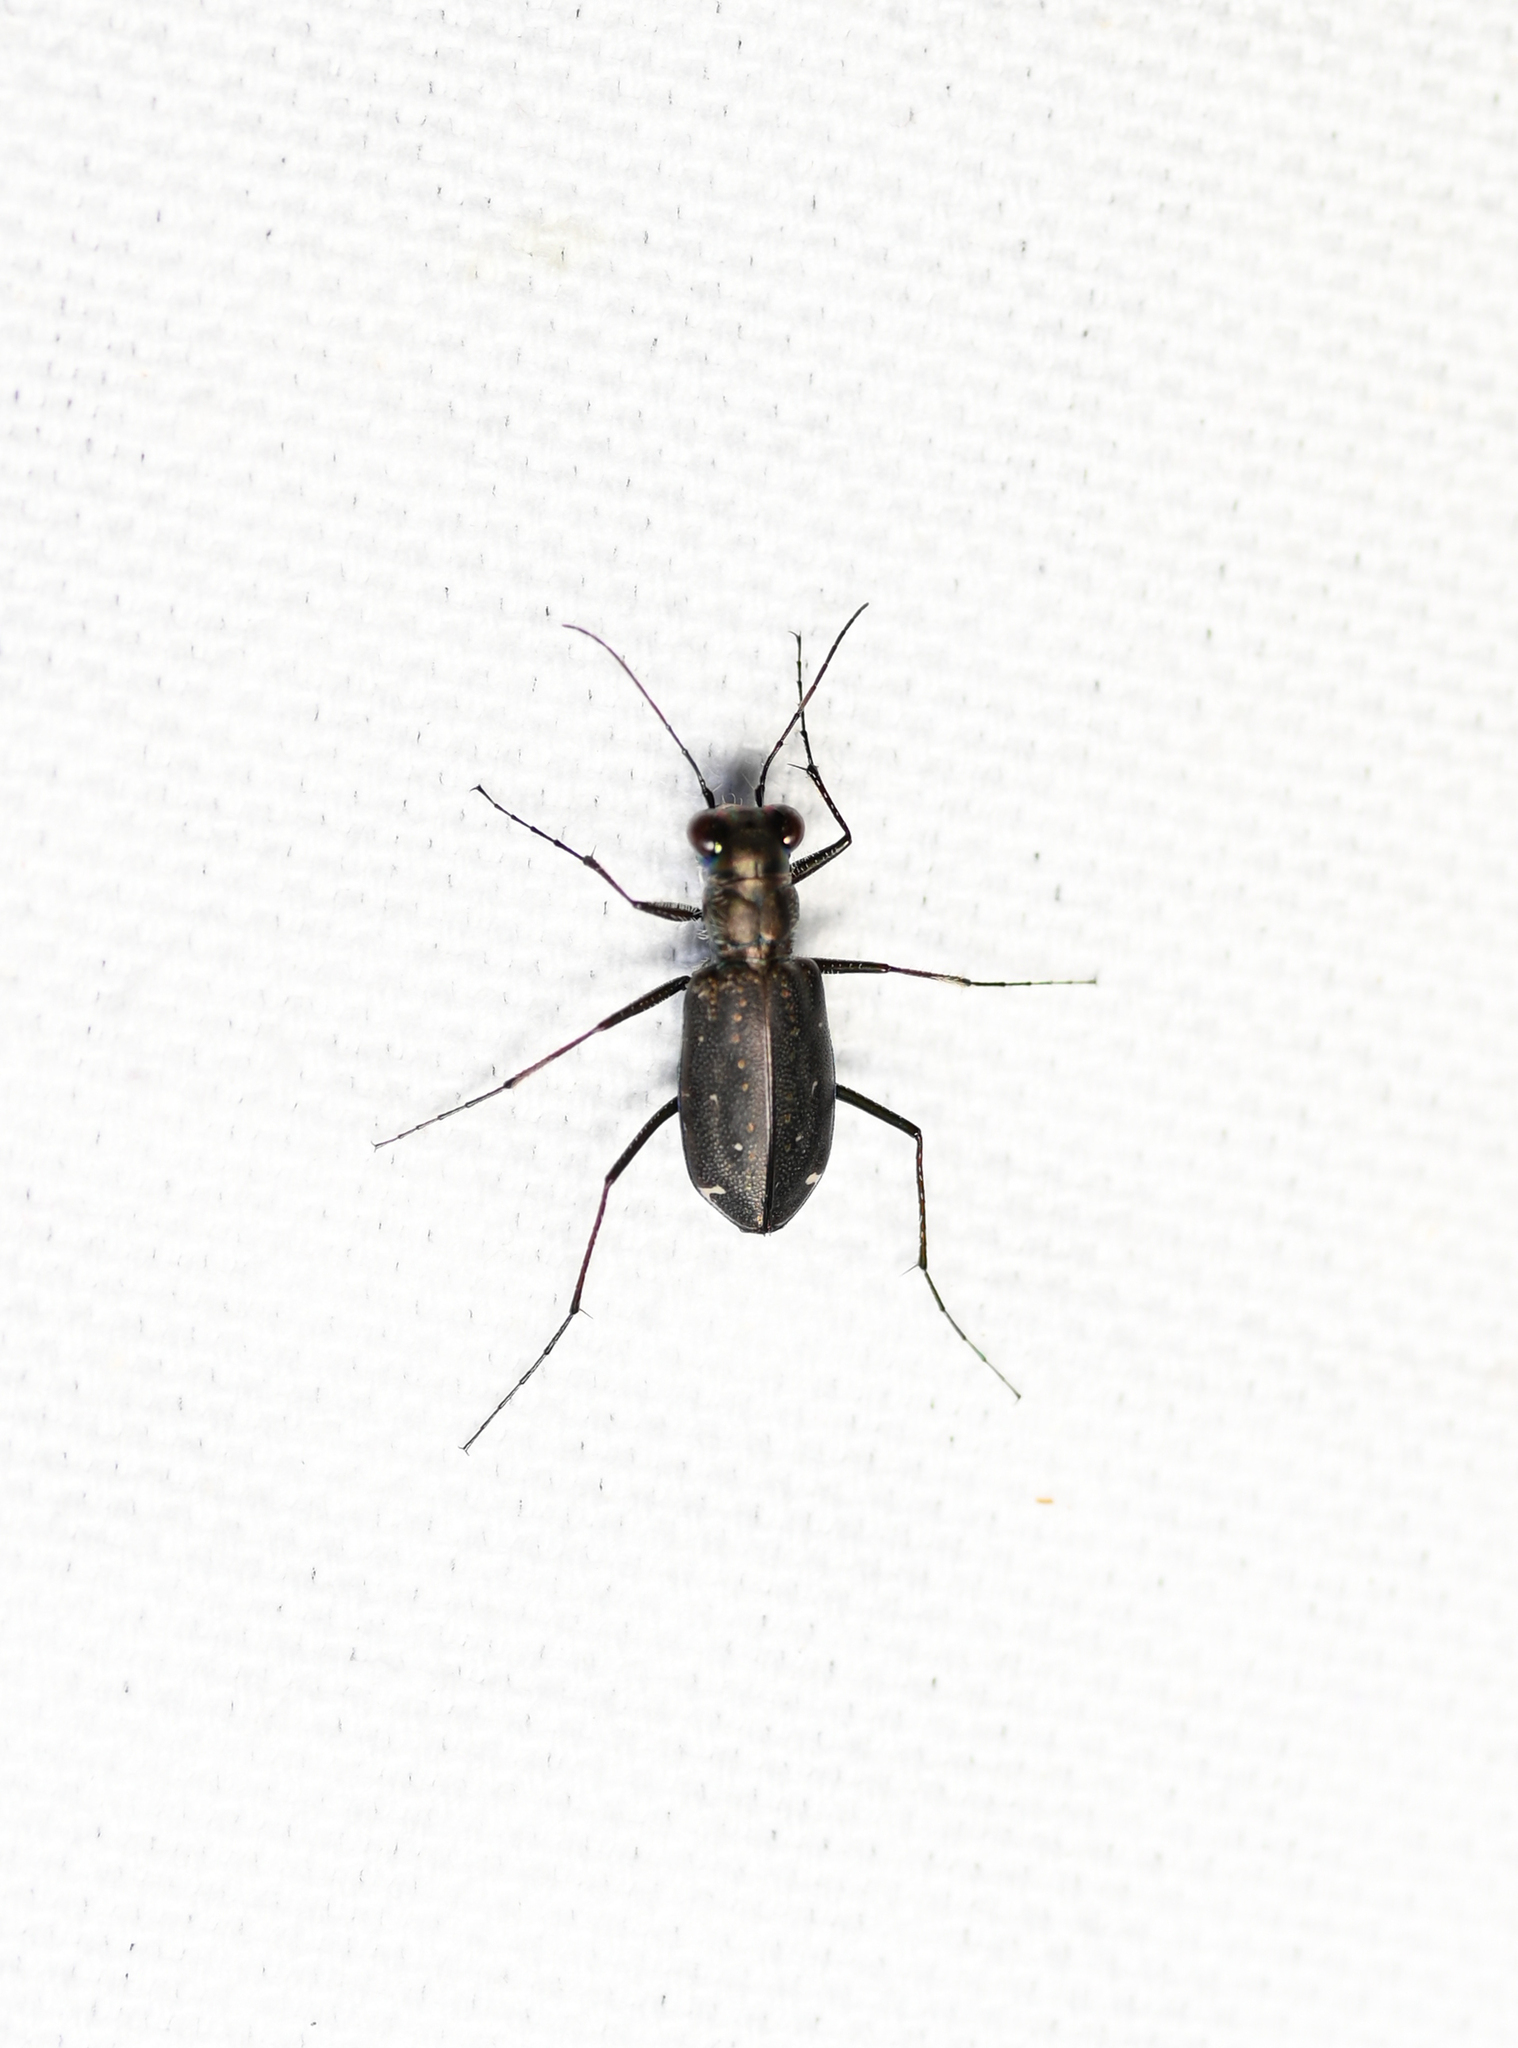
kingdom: Animalia
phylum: Arthropoda
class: Insecta
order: Coleoptera
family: Carabidae
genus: Cicindela
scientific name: Cicindela punctulata
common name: Punctured tiger beetle
